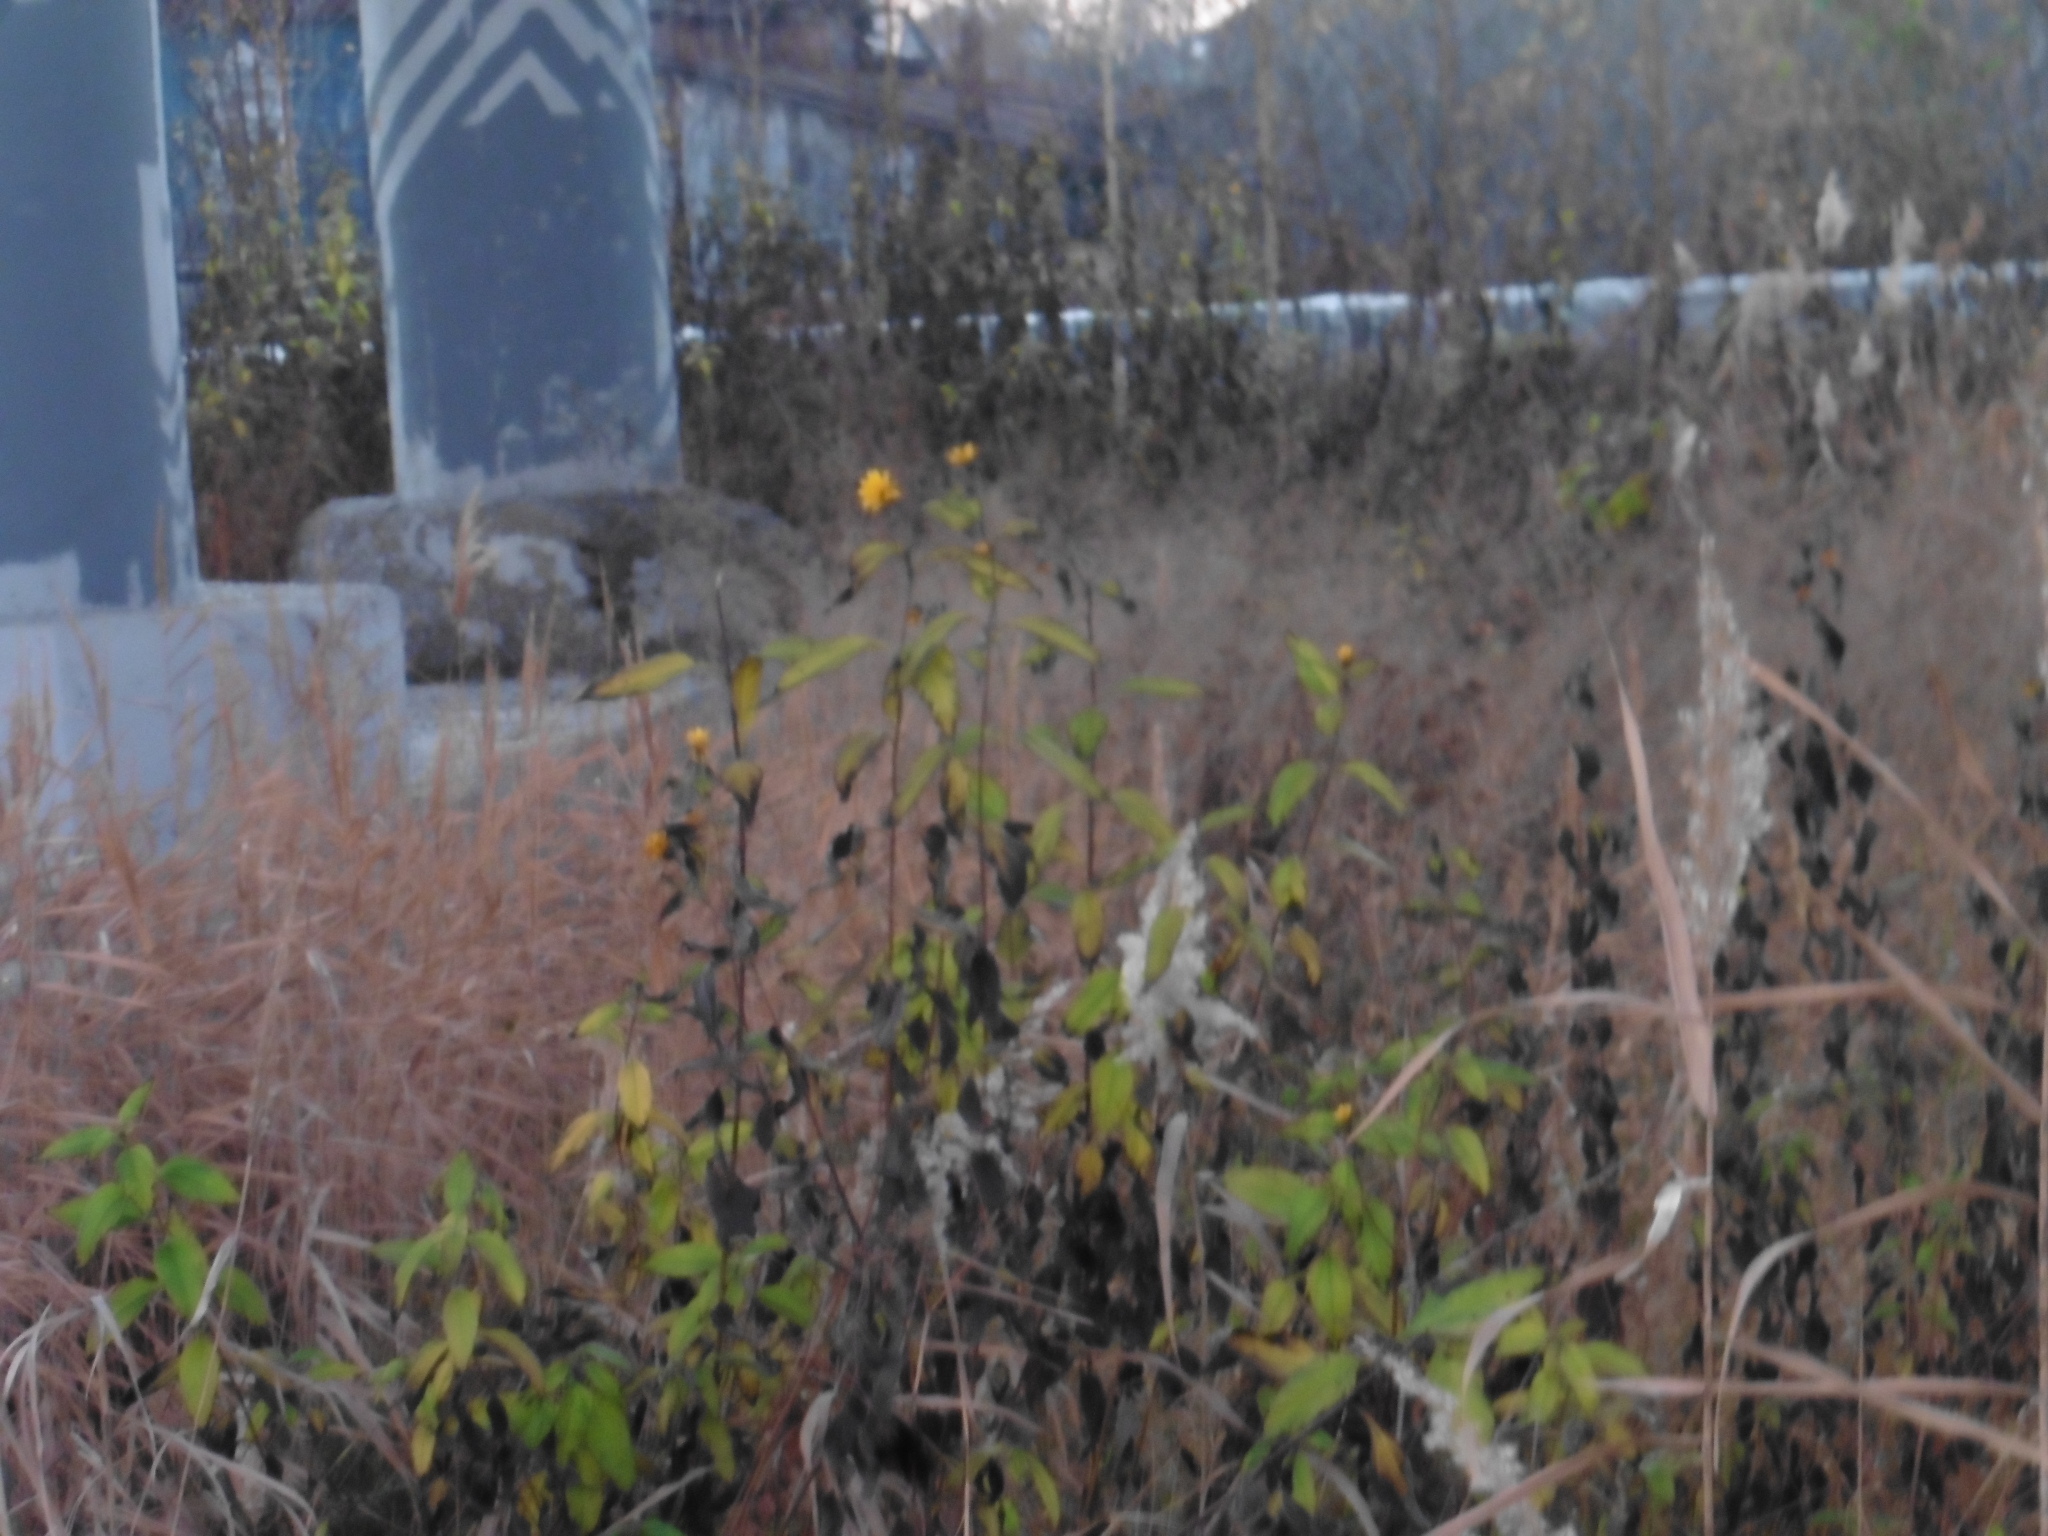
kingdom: Plantae
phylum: Tracheophyta
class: Magnoliopsida
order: Asterales
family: Asteraceae
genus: Helianthus
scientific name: Helianthus tuberosus
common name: Jerusalem artichoke
